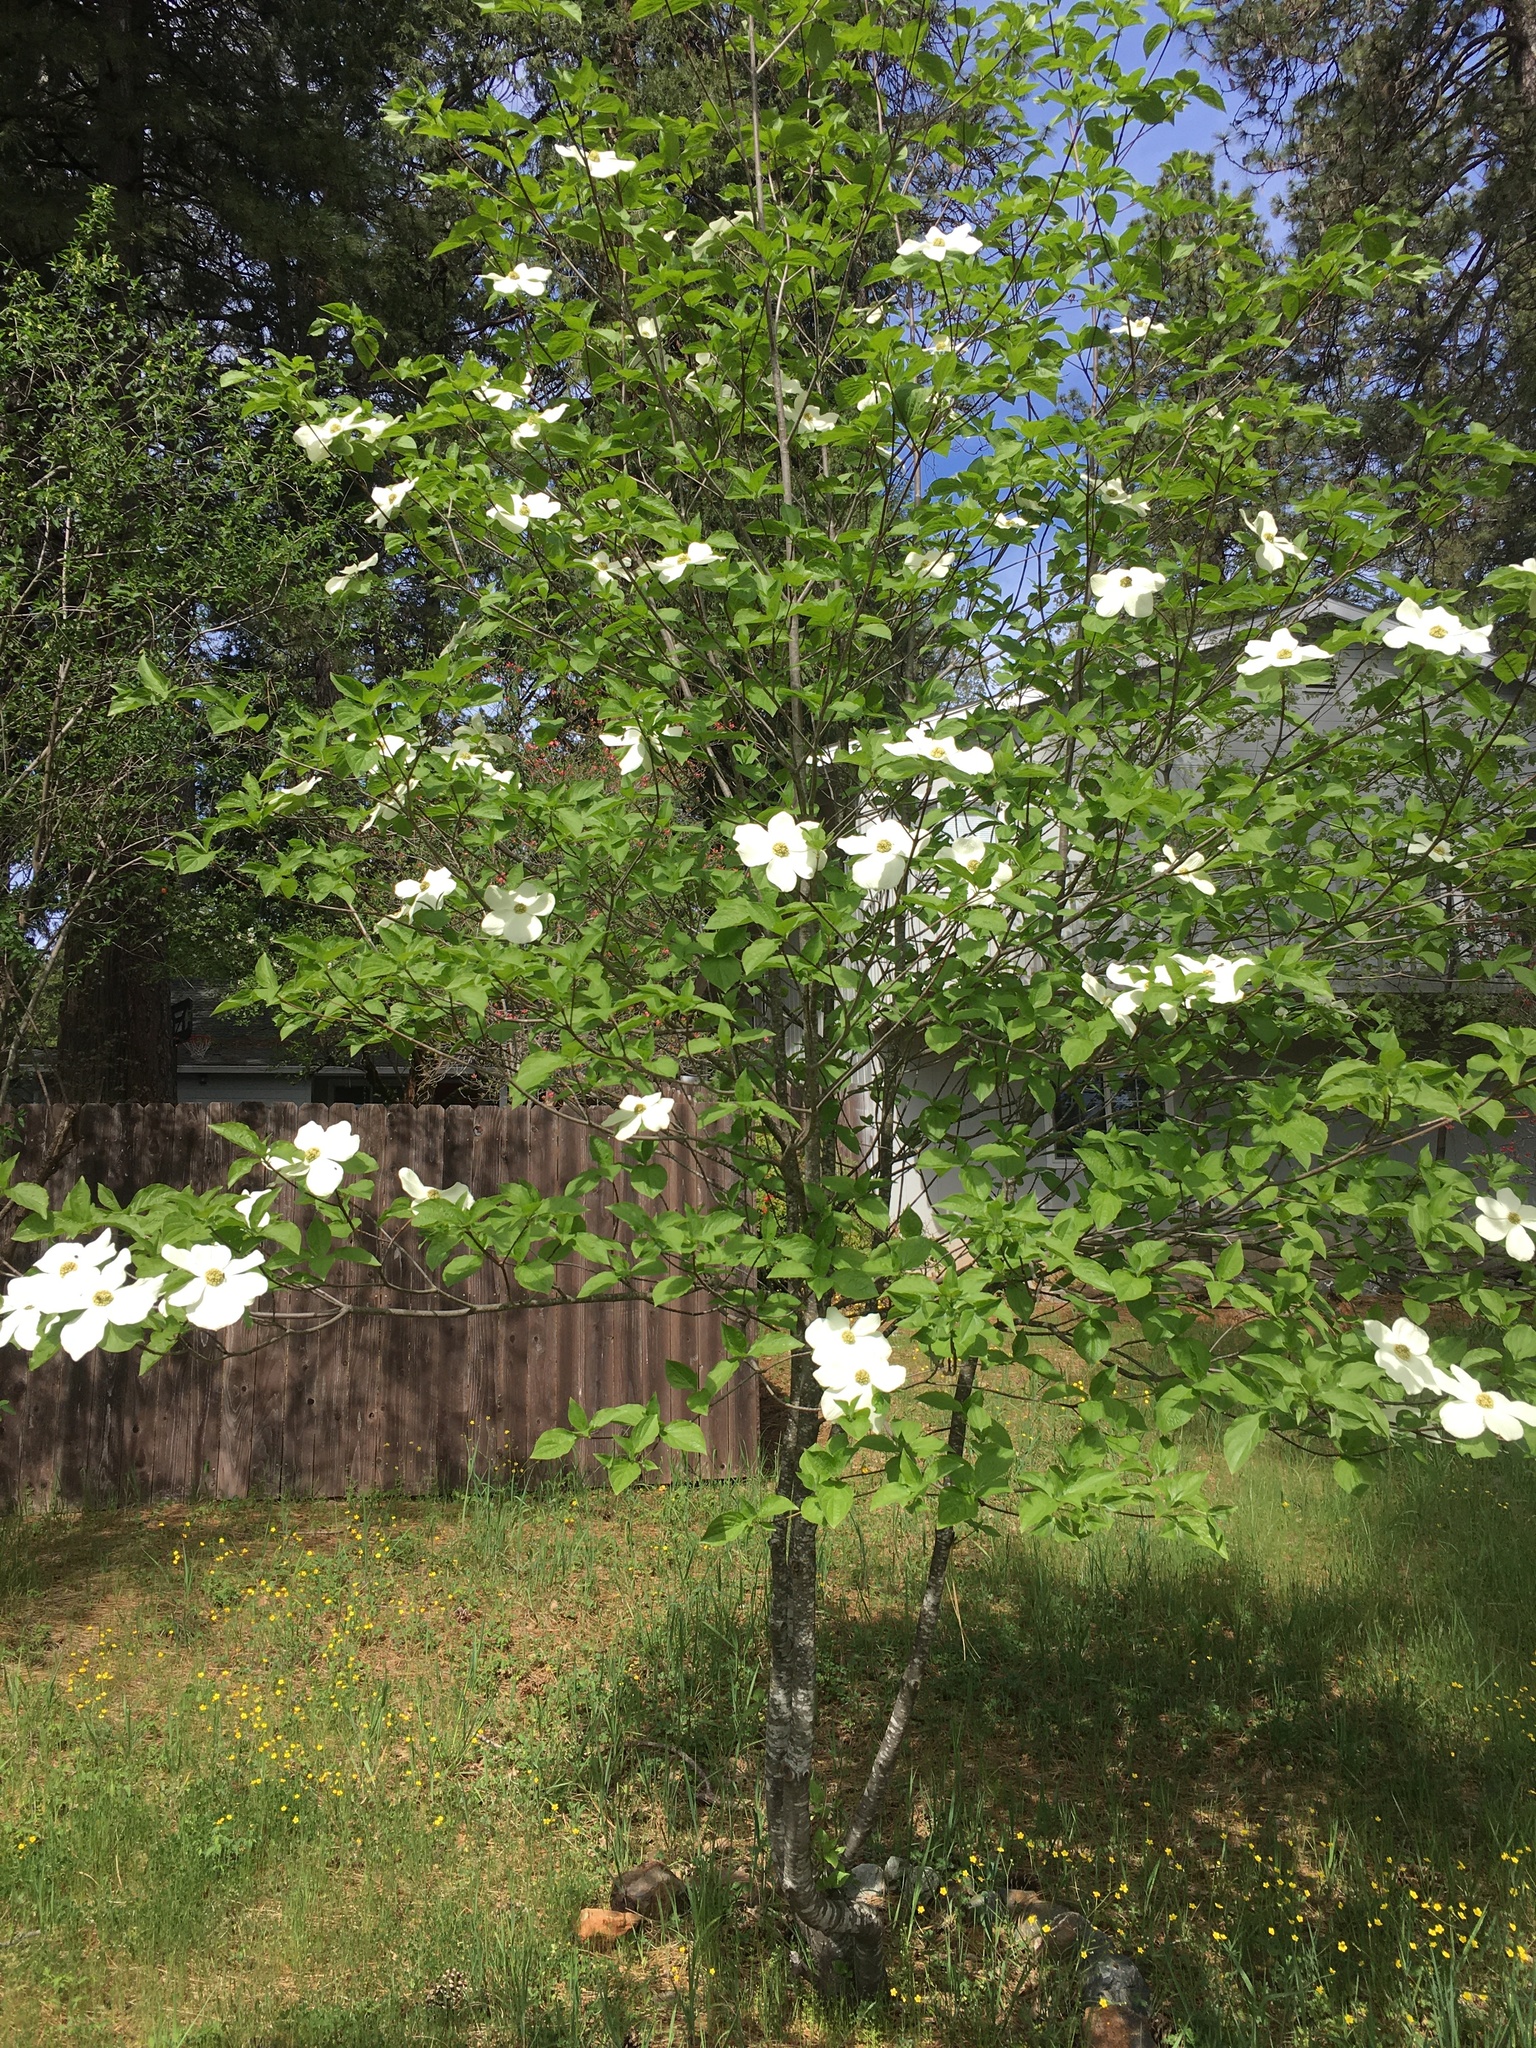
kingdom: Plantae
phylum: Tracheophyta
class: Magnoliopsida
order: Cornales
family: Cornaceae
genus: Cornus
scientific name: Cornus nuttallii
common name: Pacific dogwood
